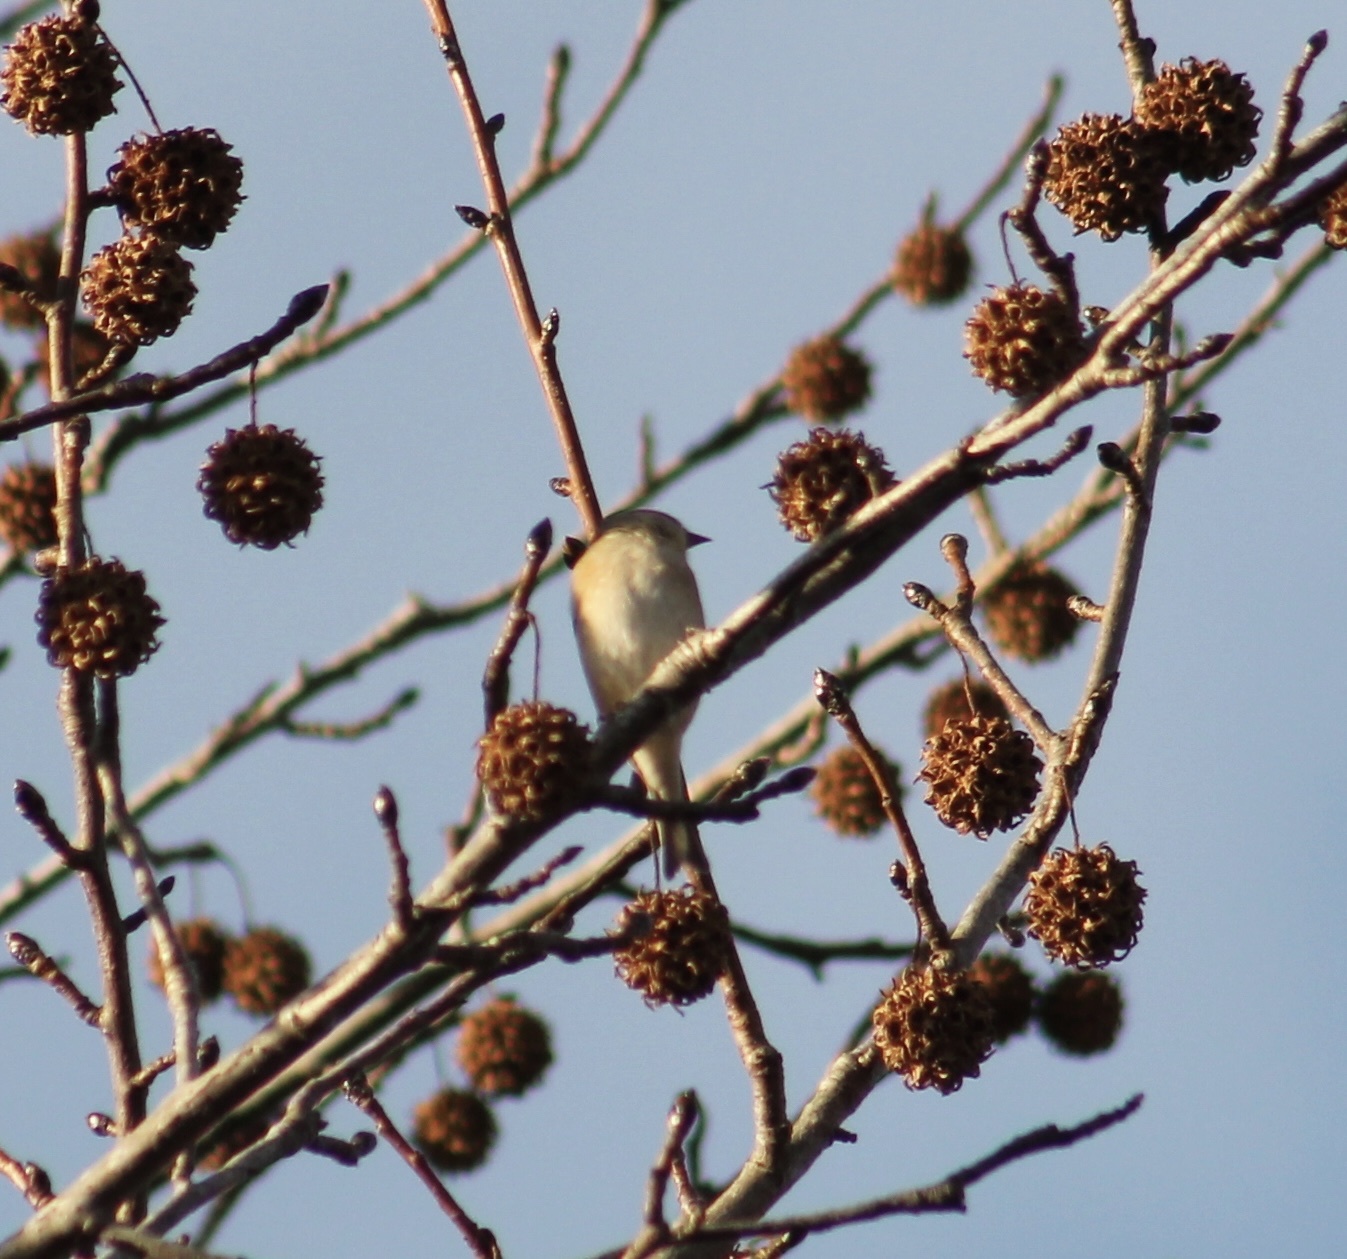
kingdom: Animalia
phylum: Chordata
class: Aves
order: Passeriformes
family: Fringillidae
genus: Spinus
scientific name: Spinus tristis
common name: American goldfinch
